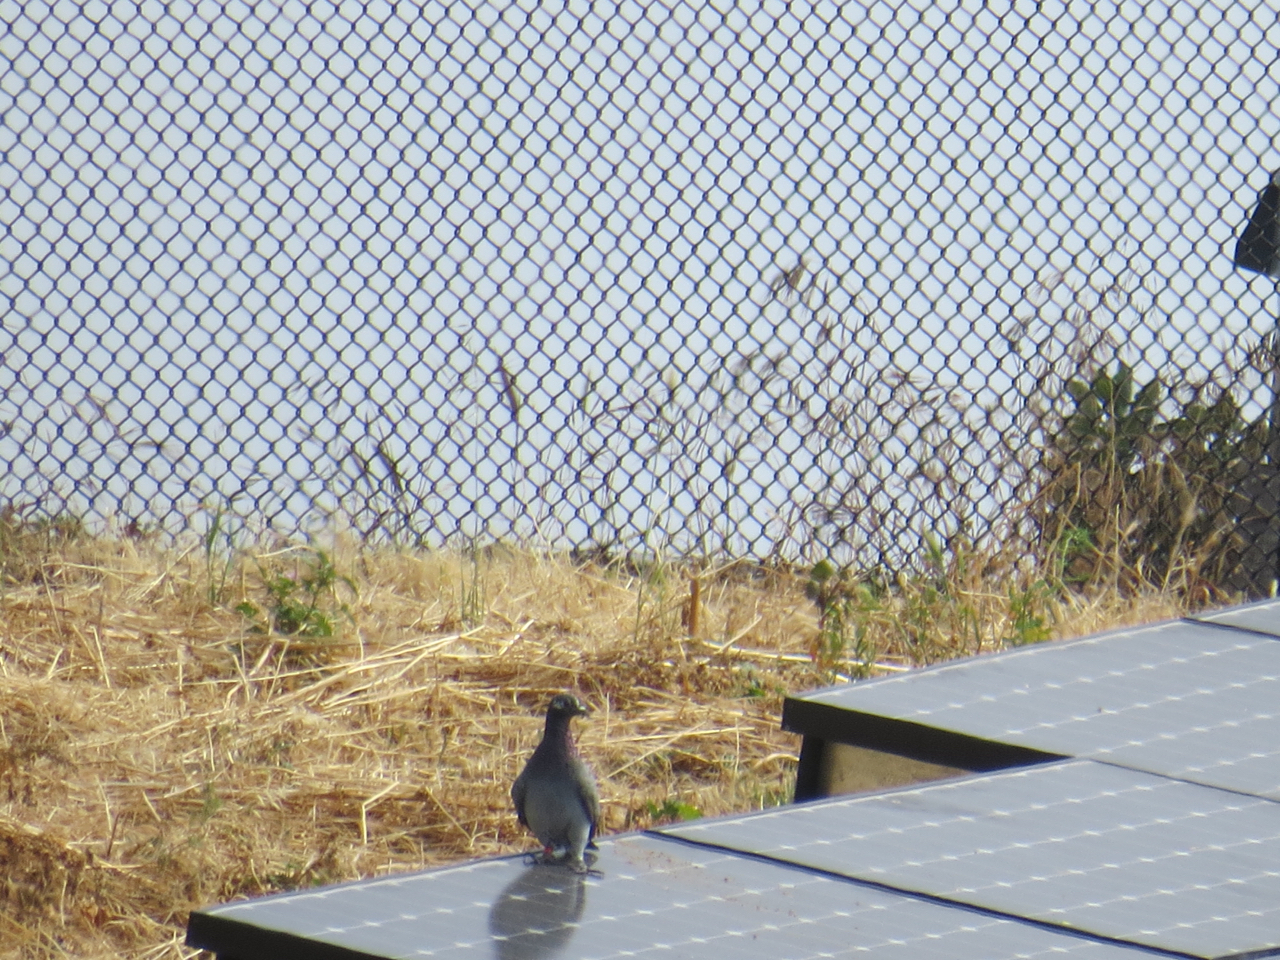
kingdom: Animalia
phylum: Chordata
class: Aves
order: Columbiformes
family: Columbidae
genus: Columba
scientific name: Columba livia
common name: Rock pigeon
